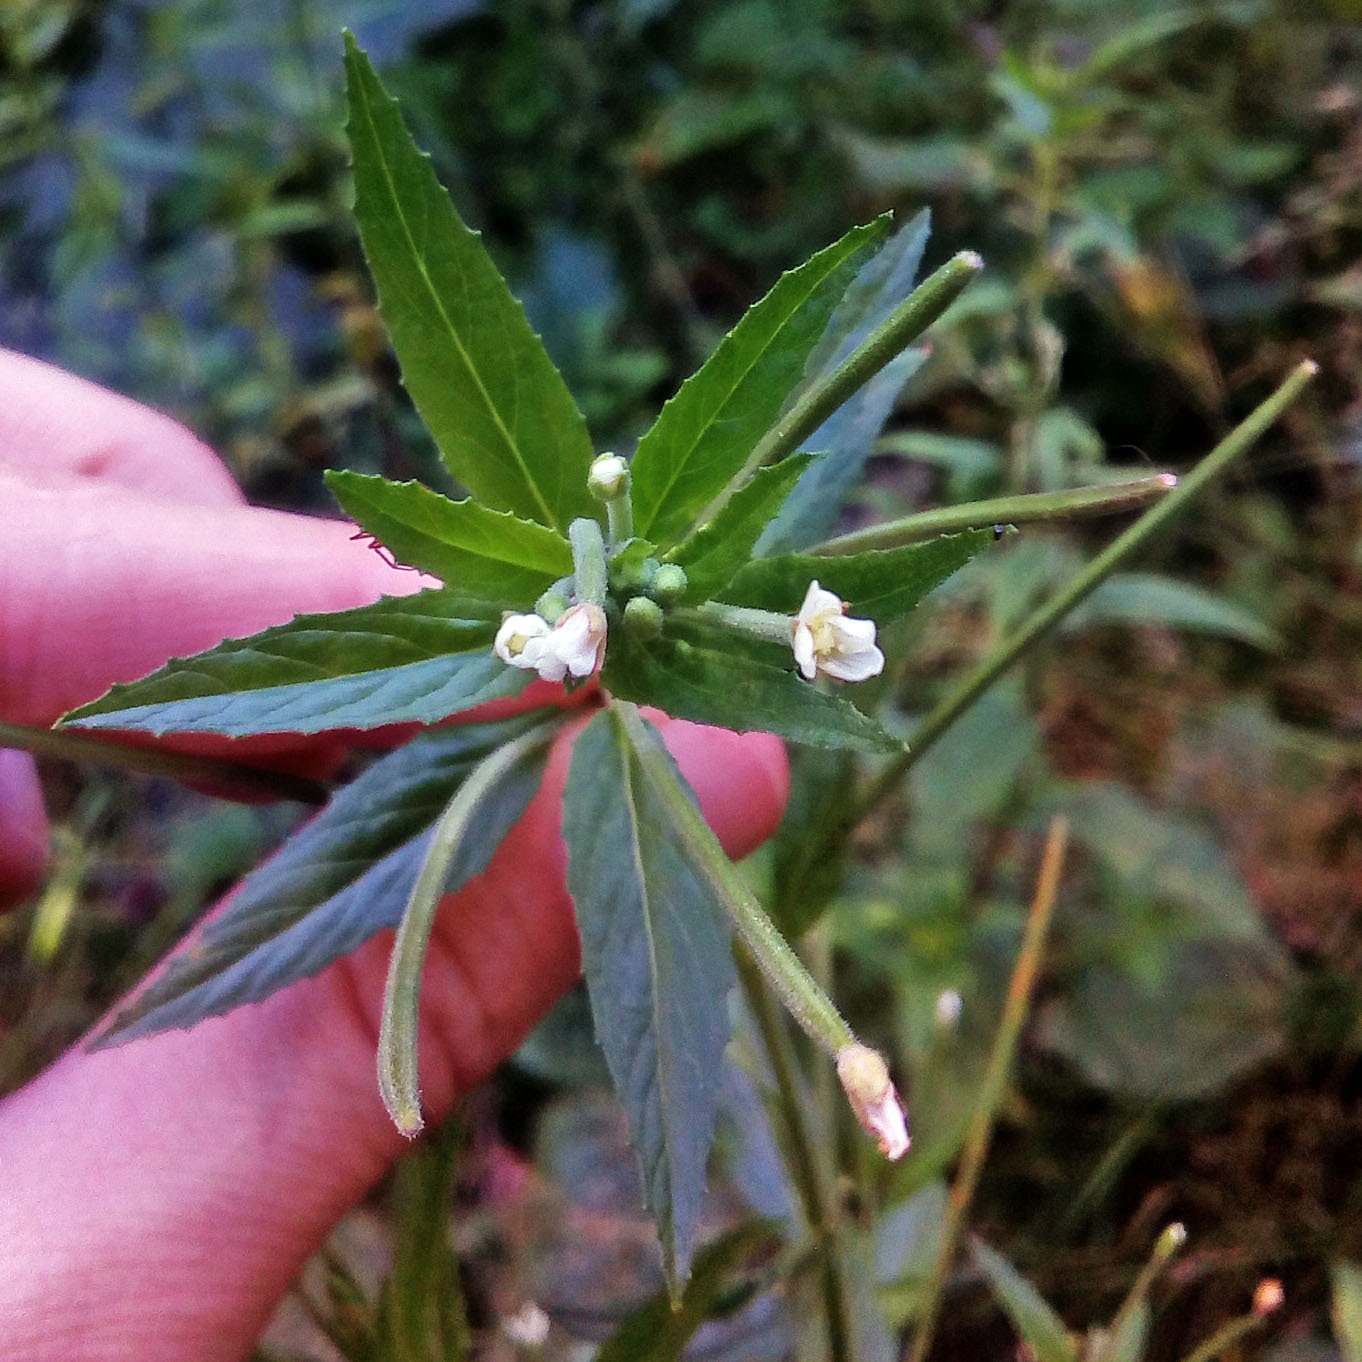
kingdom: Plantae
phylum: Tracheophyta
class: Magnoliopsida
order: Myrtales
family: Onagraceae
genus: Epilobium
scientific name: Epilobium pseudorubescens
